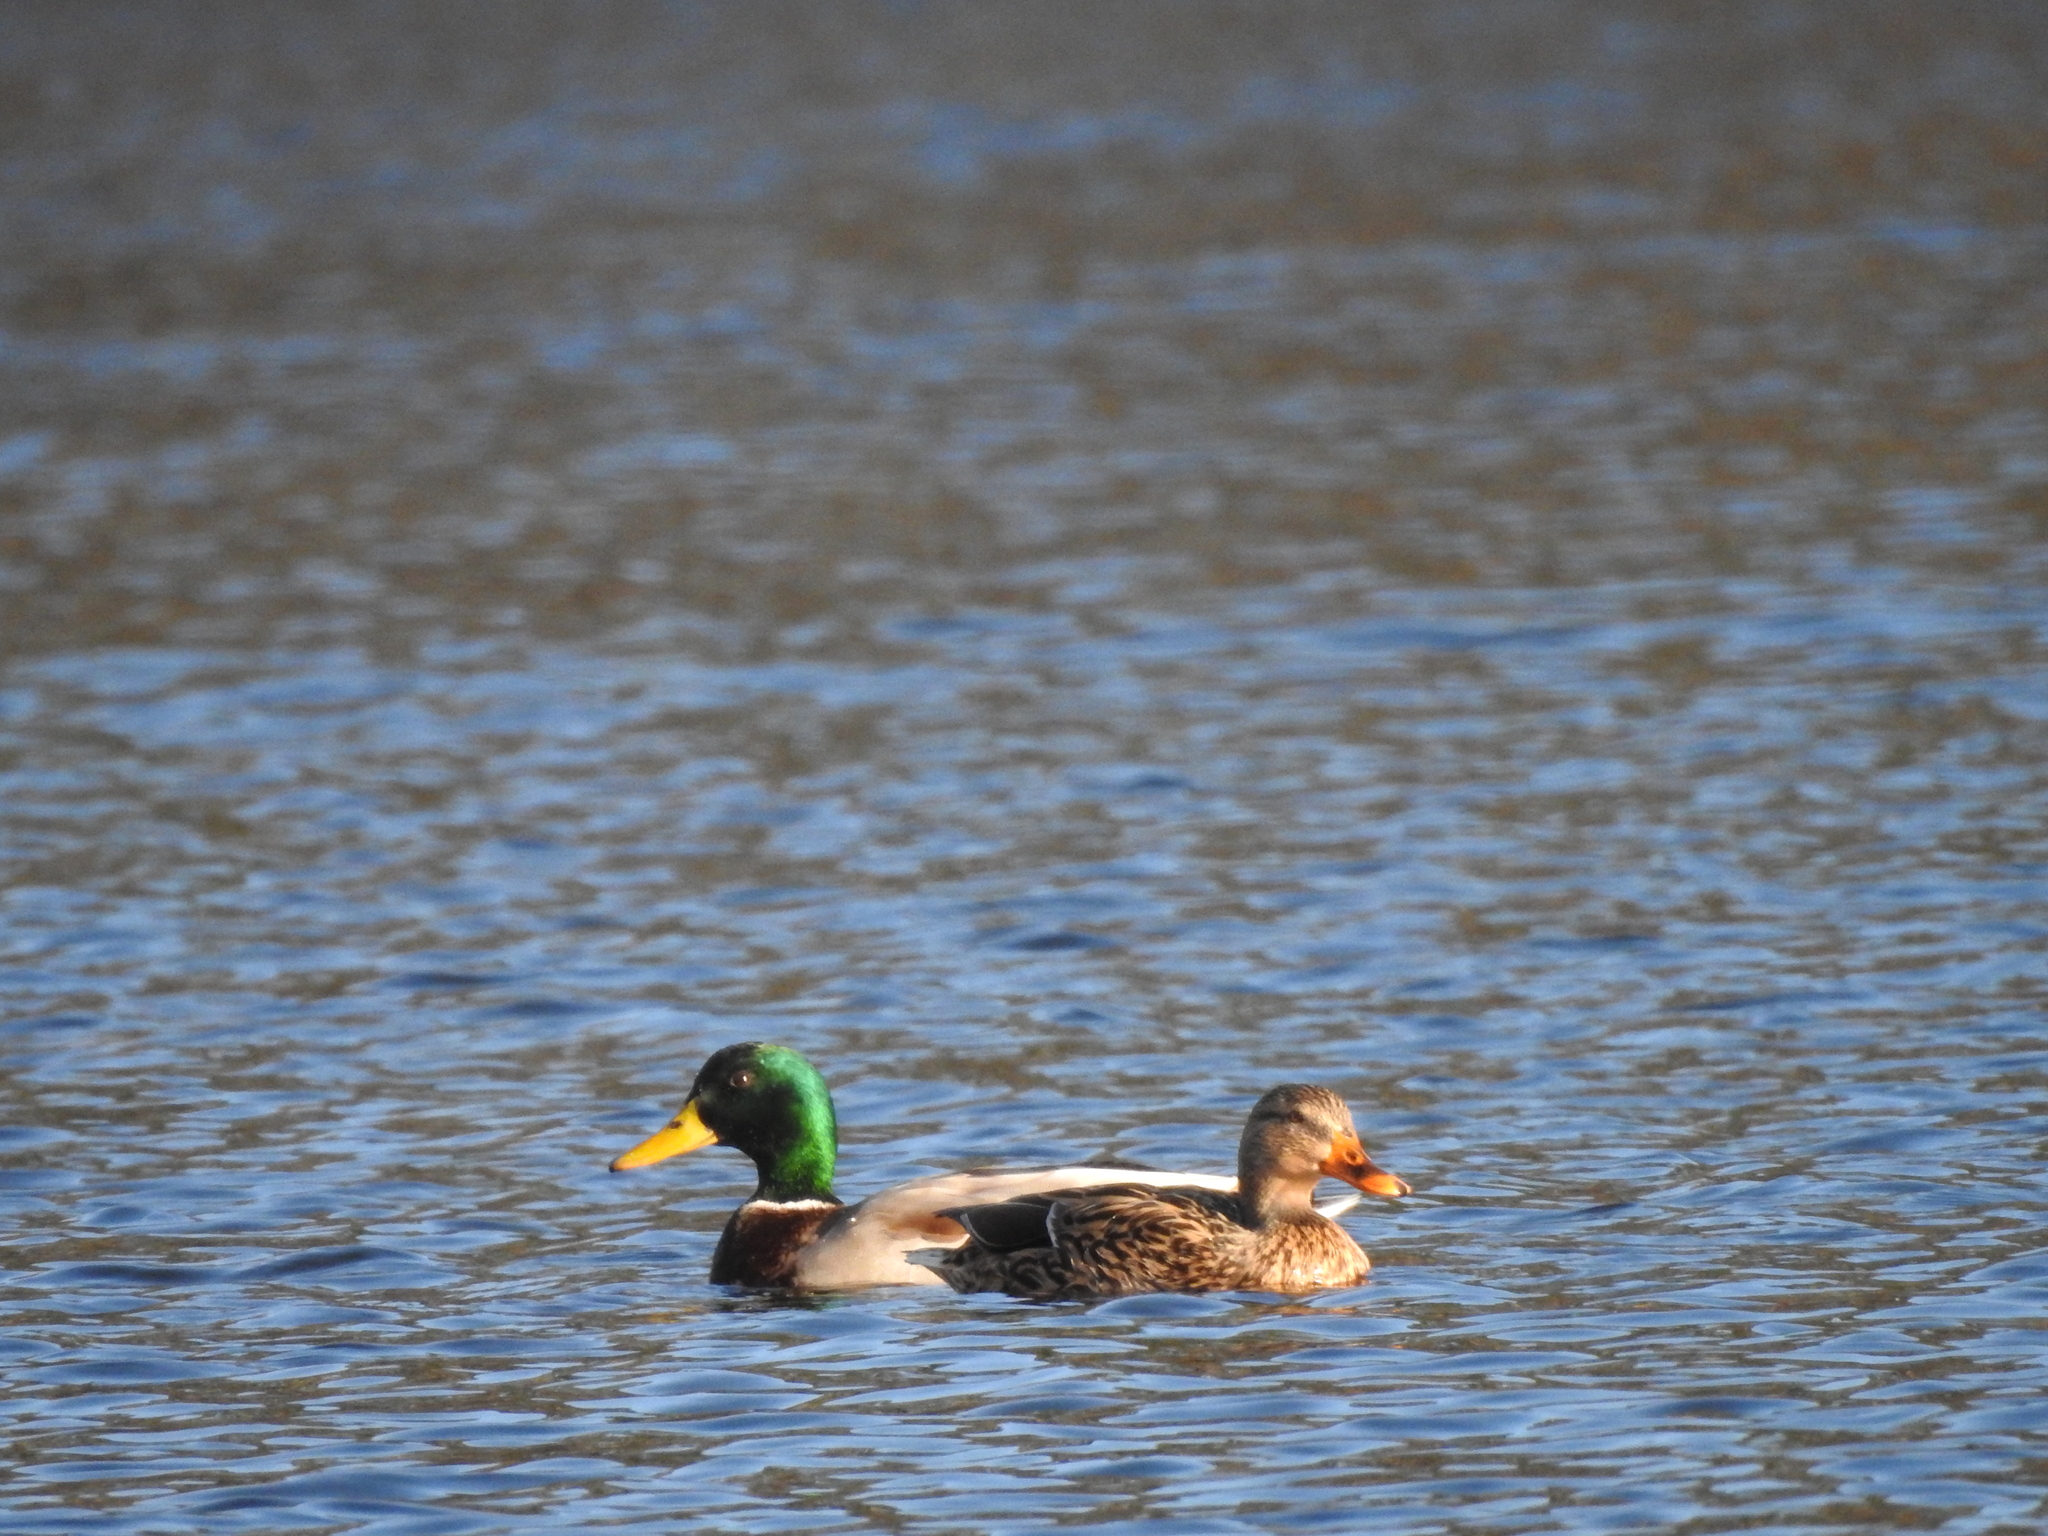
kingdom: Animalia
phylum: Chordata
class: Aves
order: Anseriformes
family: Anatidae
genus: Anas
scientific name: Anas platyrhynchos
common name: Mallard
